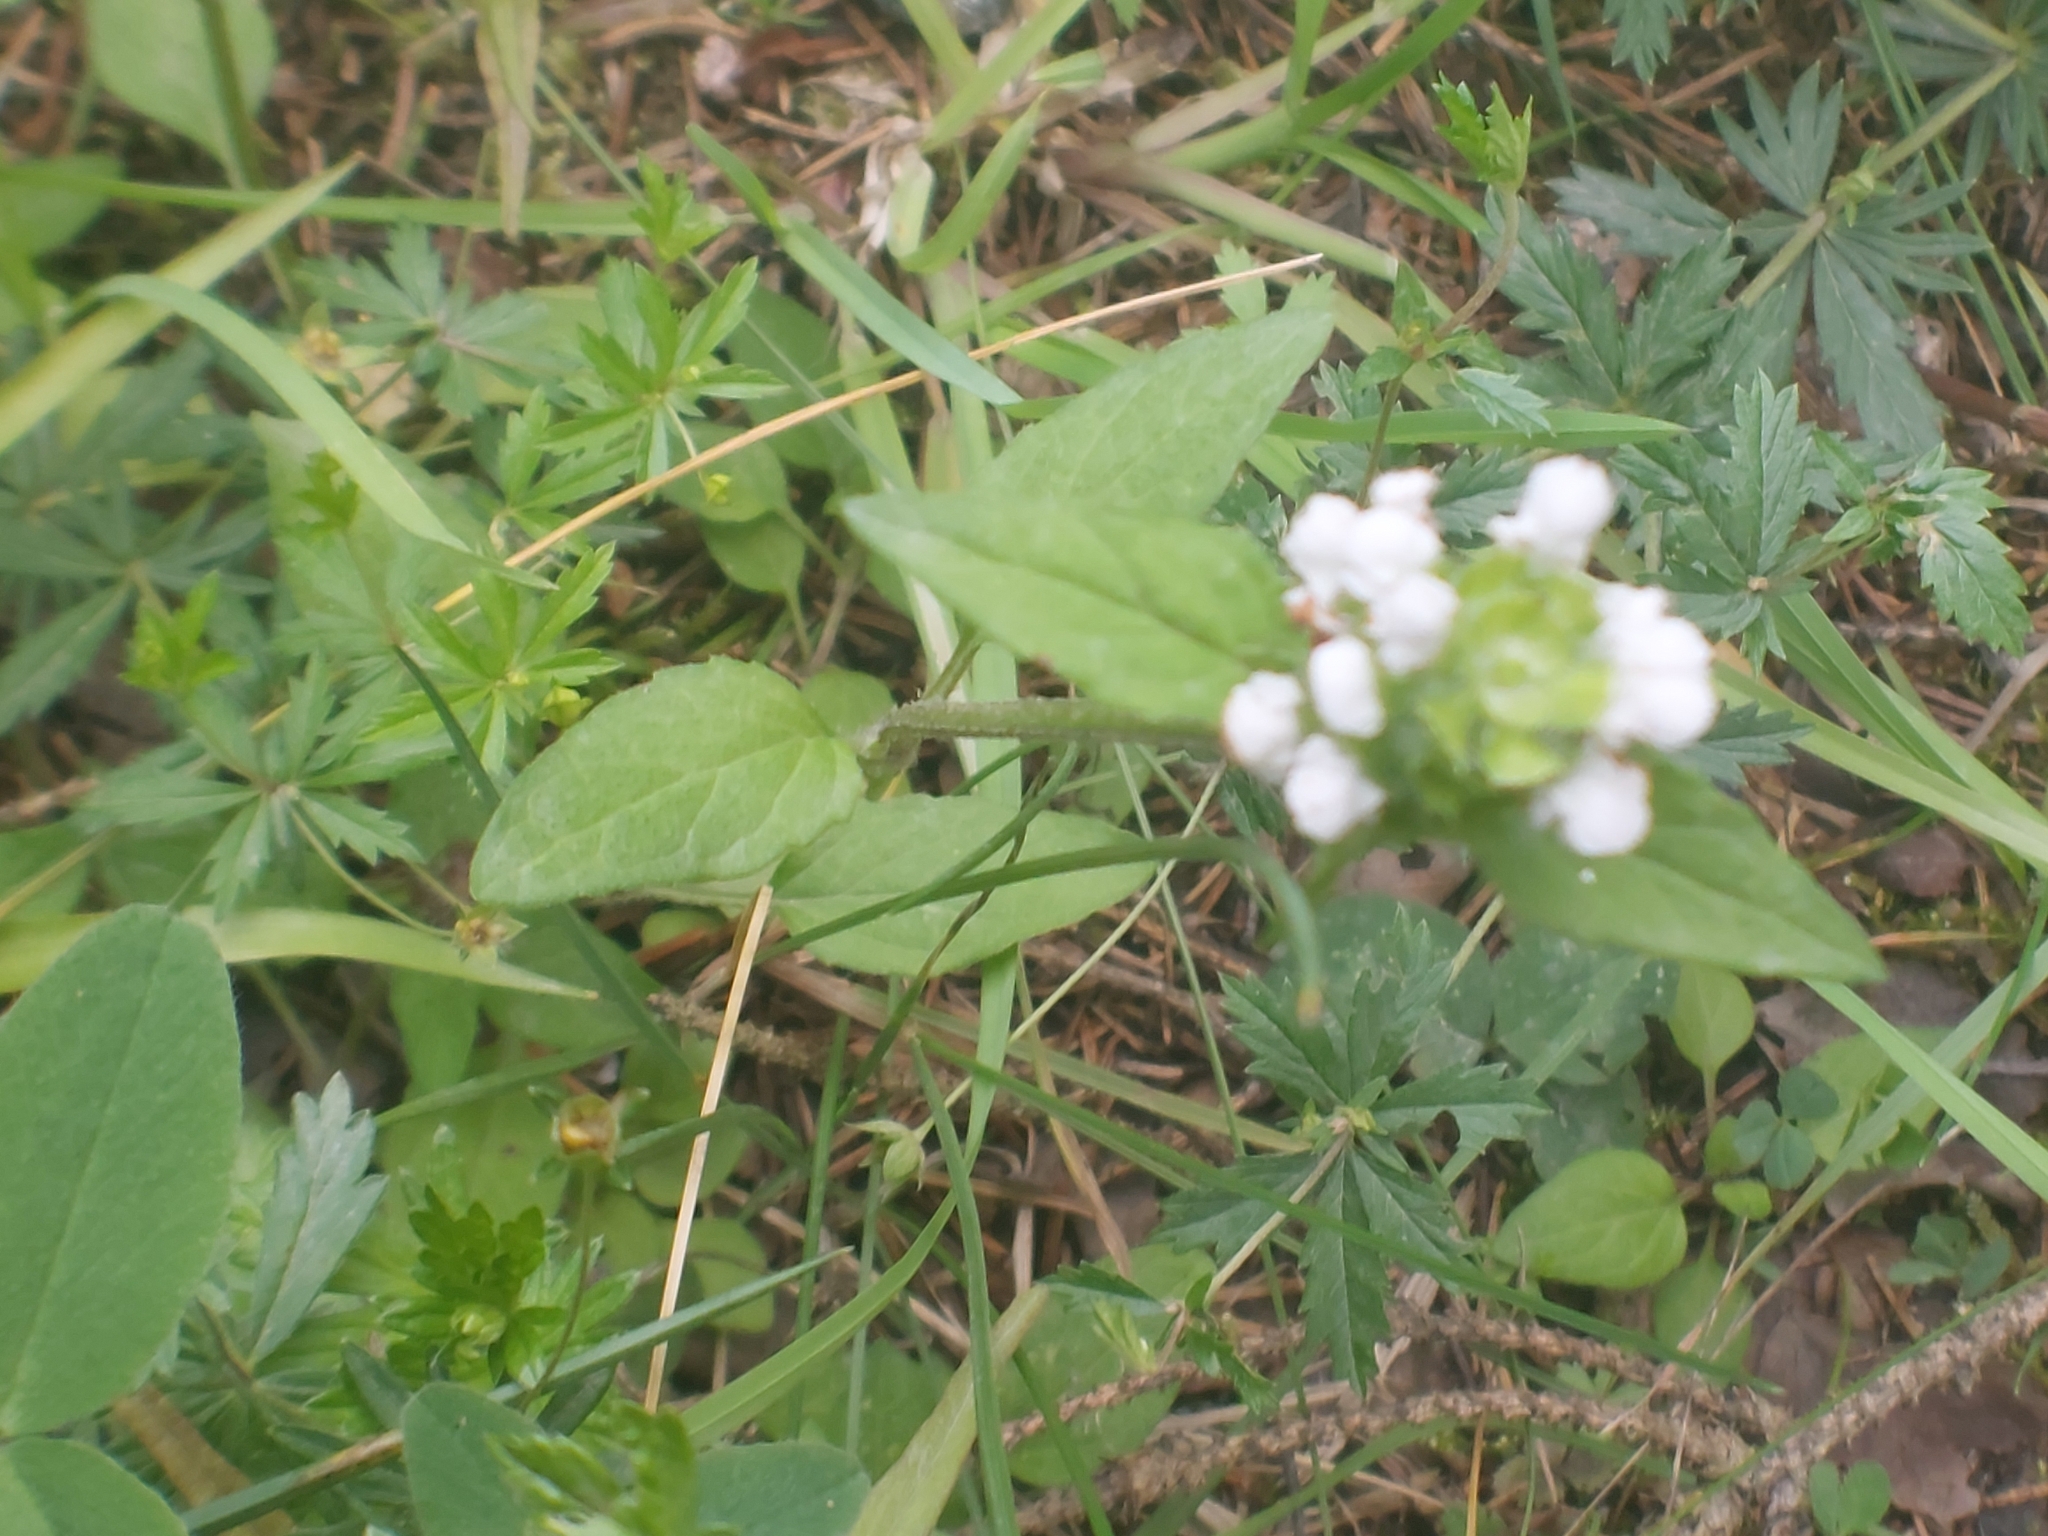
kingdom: Plantae
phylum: Tracheophyta
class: Magnoliopsida
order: Lamiales
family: Lamiaceae
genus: Prunella
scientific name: Prunella vulgaris
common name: Heal-all
